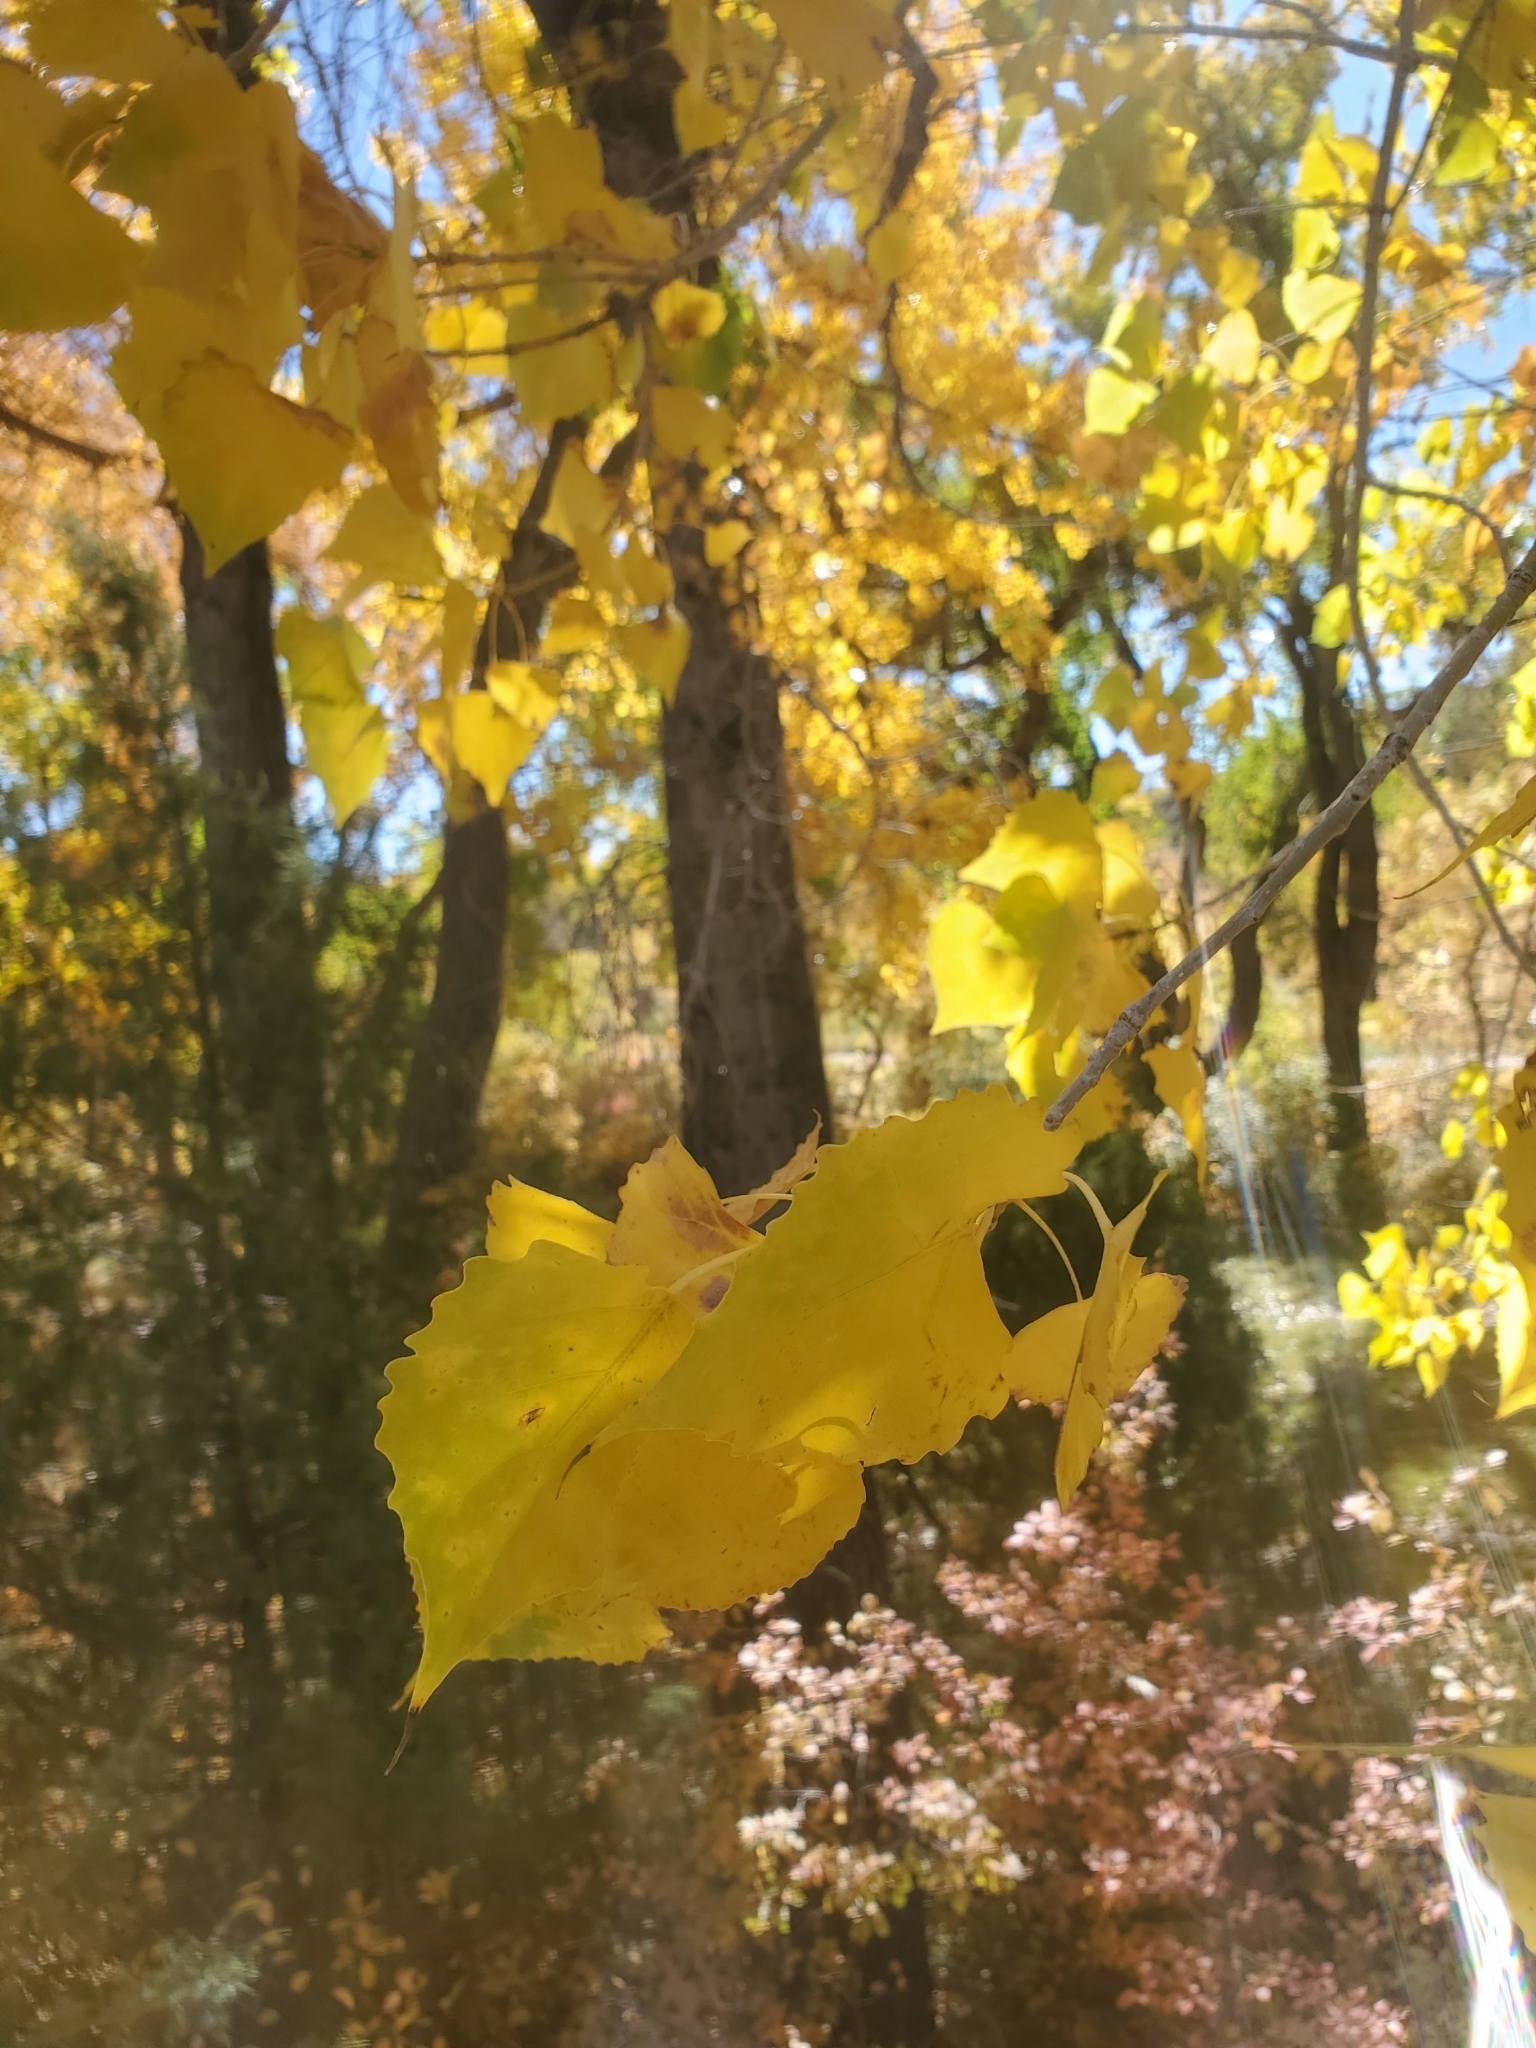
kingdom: Plantae
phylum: Tracheophyta
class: Magnoliopsida
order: Malpighiales
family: Salicaceae
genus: Populus
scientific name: Populus deltoides
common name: Eastern cottonwood
